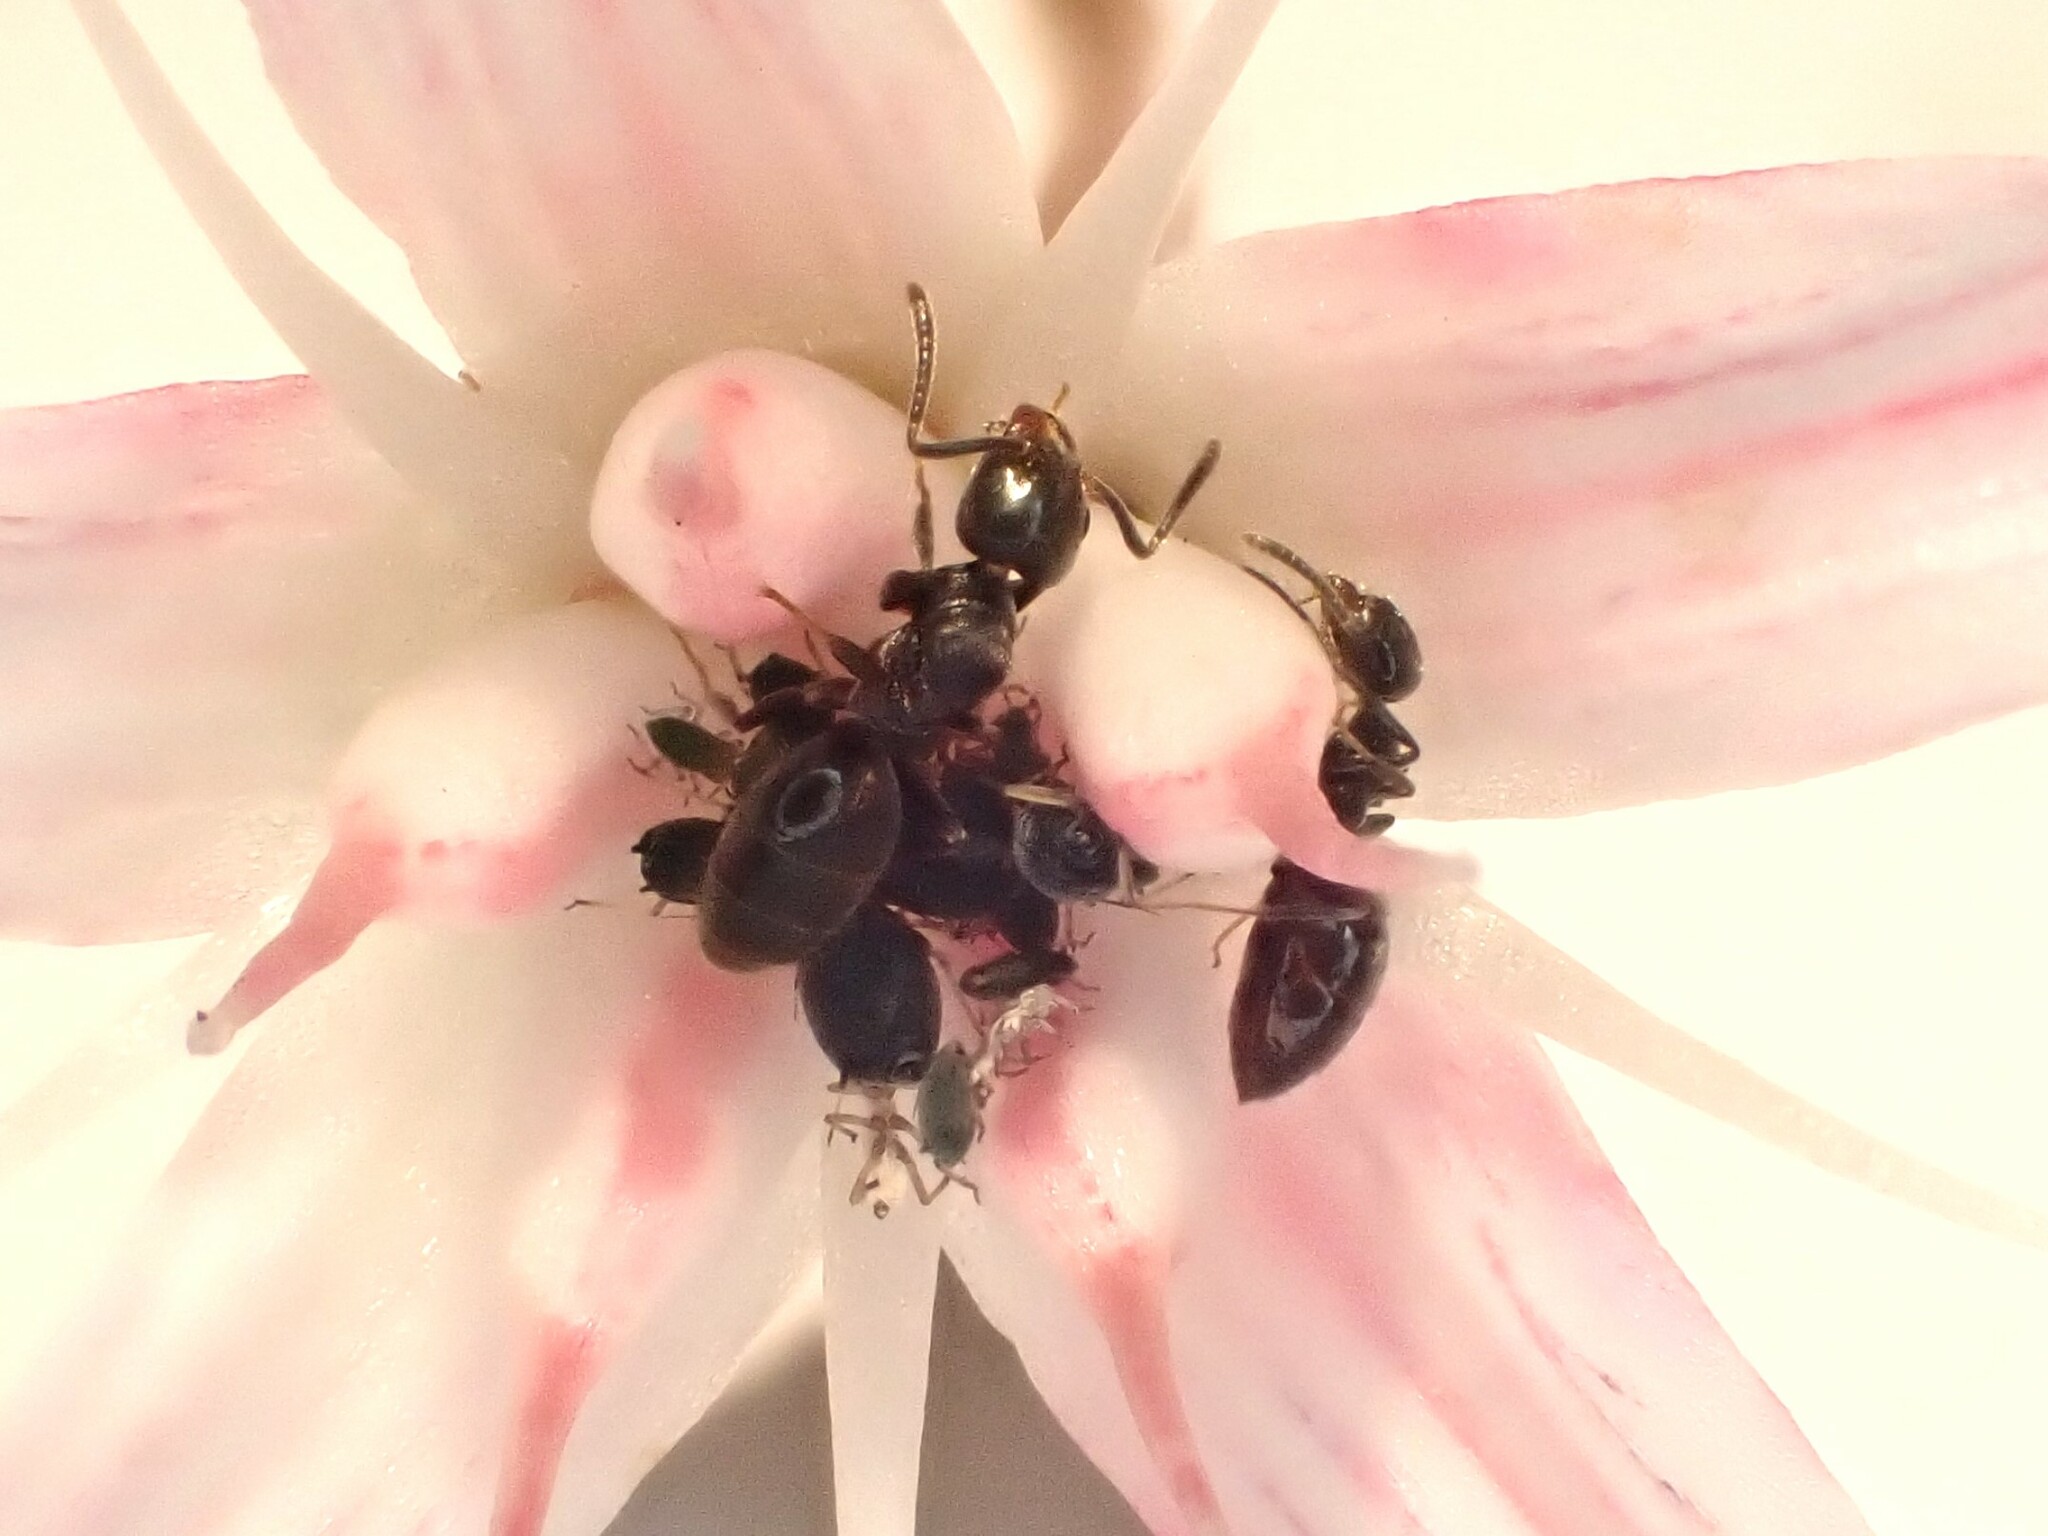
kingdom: Animalia
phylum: Arthropoda
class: Insecta
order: Hymenoptera
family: Formicidae
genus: Technomyrmex
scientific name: Technomyrmex jocosus
